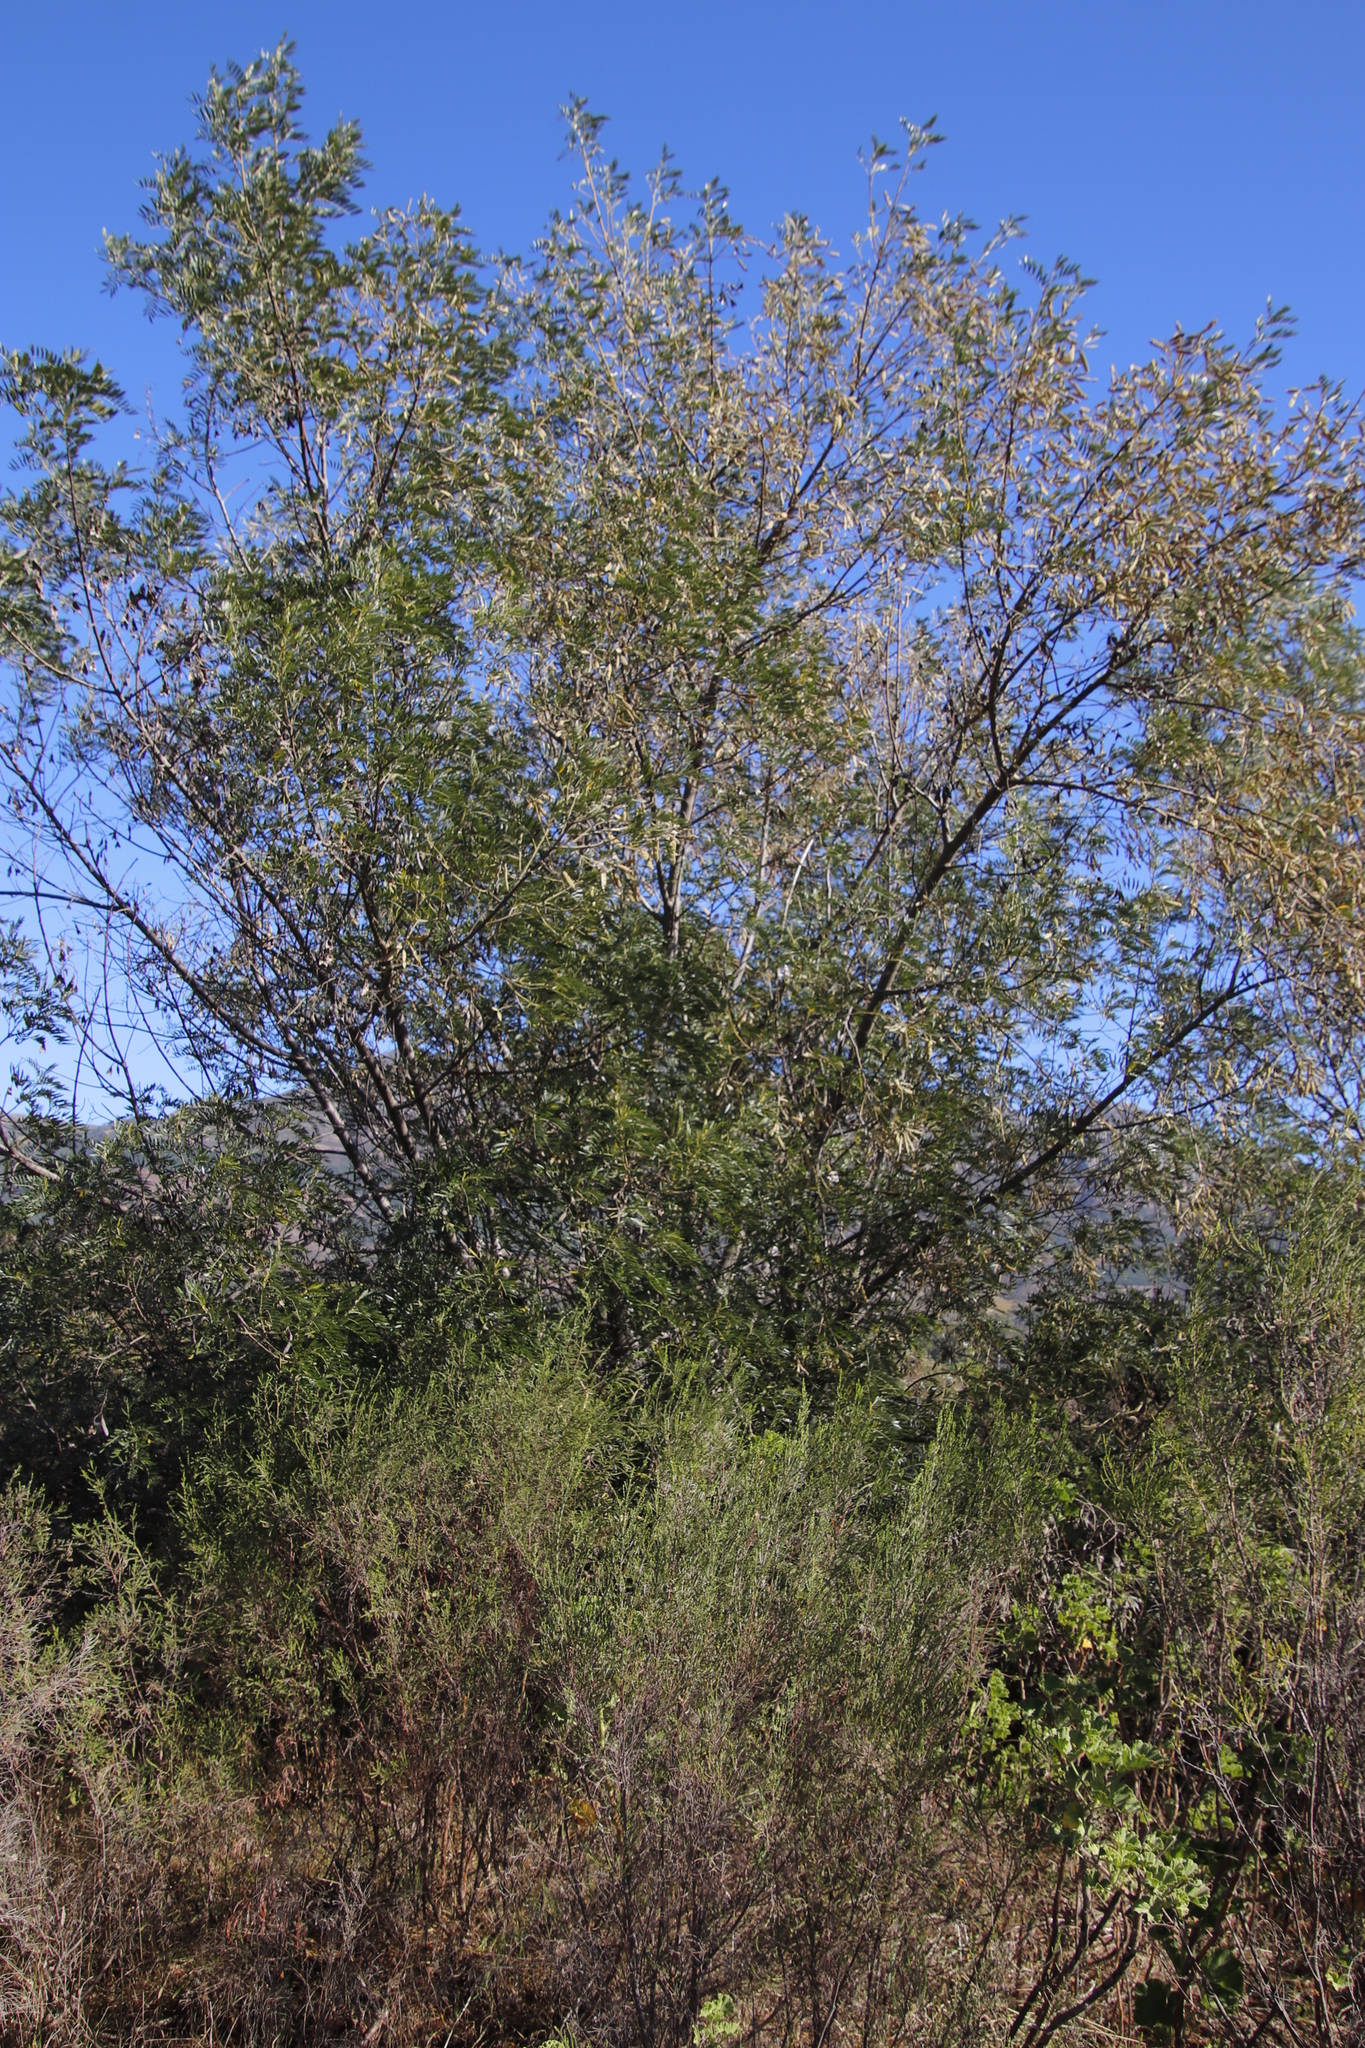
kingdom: Plantae
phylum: Tracheophyta
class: Magnoliopsida
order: Fabales
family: Fabaceae
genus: Virgilia
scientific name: Virgilia oroboides
